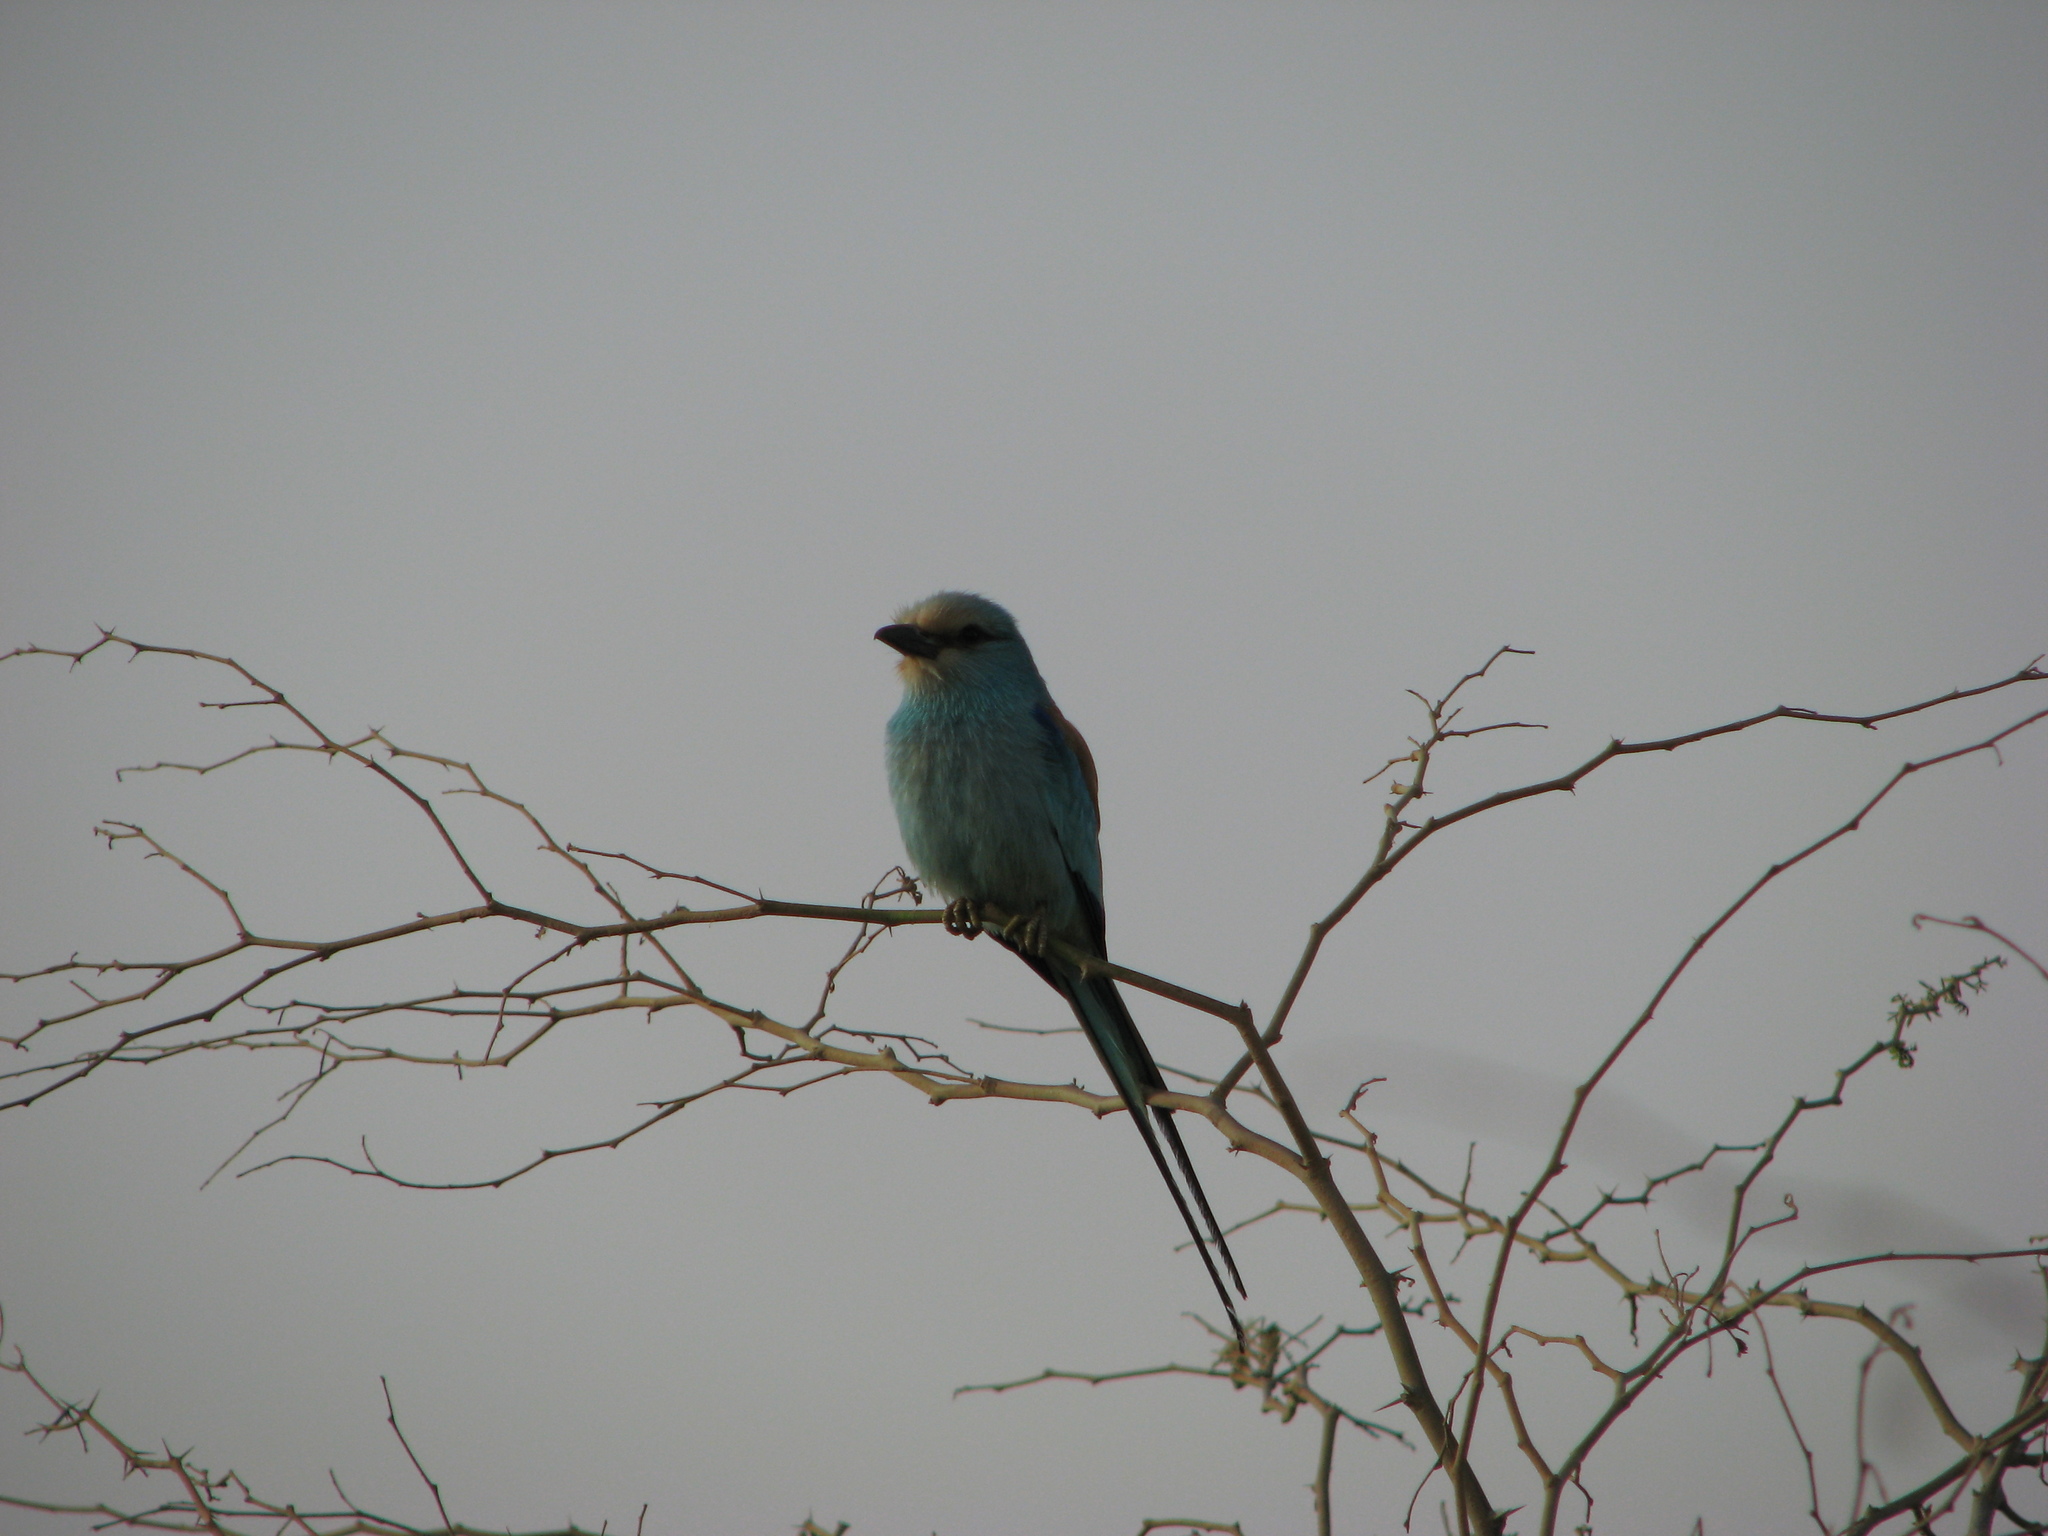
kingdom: Animalia
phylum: Chordata
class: Aves
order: Coraciiformes
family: Coraciidae
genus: Coracias
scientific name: Coracias abyssinicus
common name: Abyssinian roller
